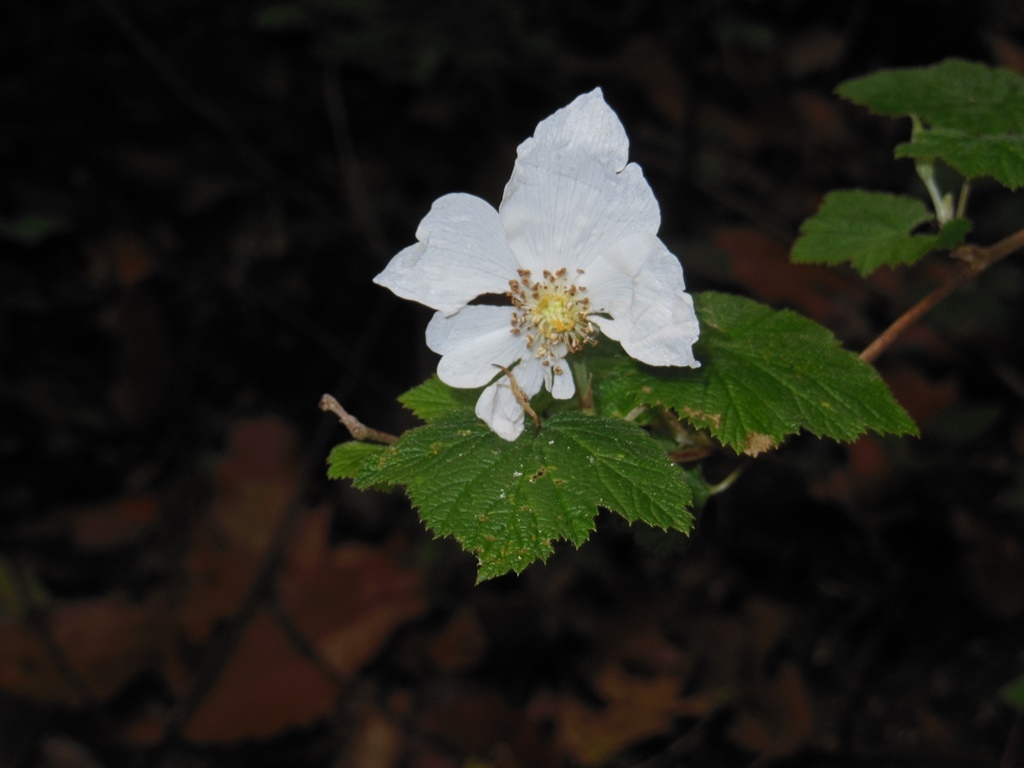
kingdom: Plantae
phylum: Tracheophyta
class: Magnoliopsida
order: Rosales
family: Rosaceae
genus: Rubus
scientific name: Rubus trilobus
